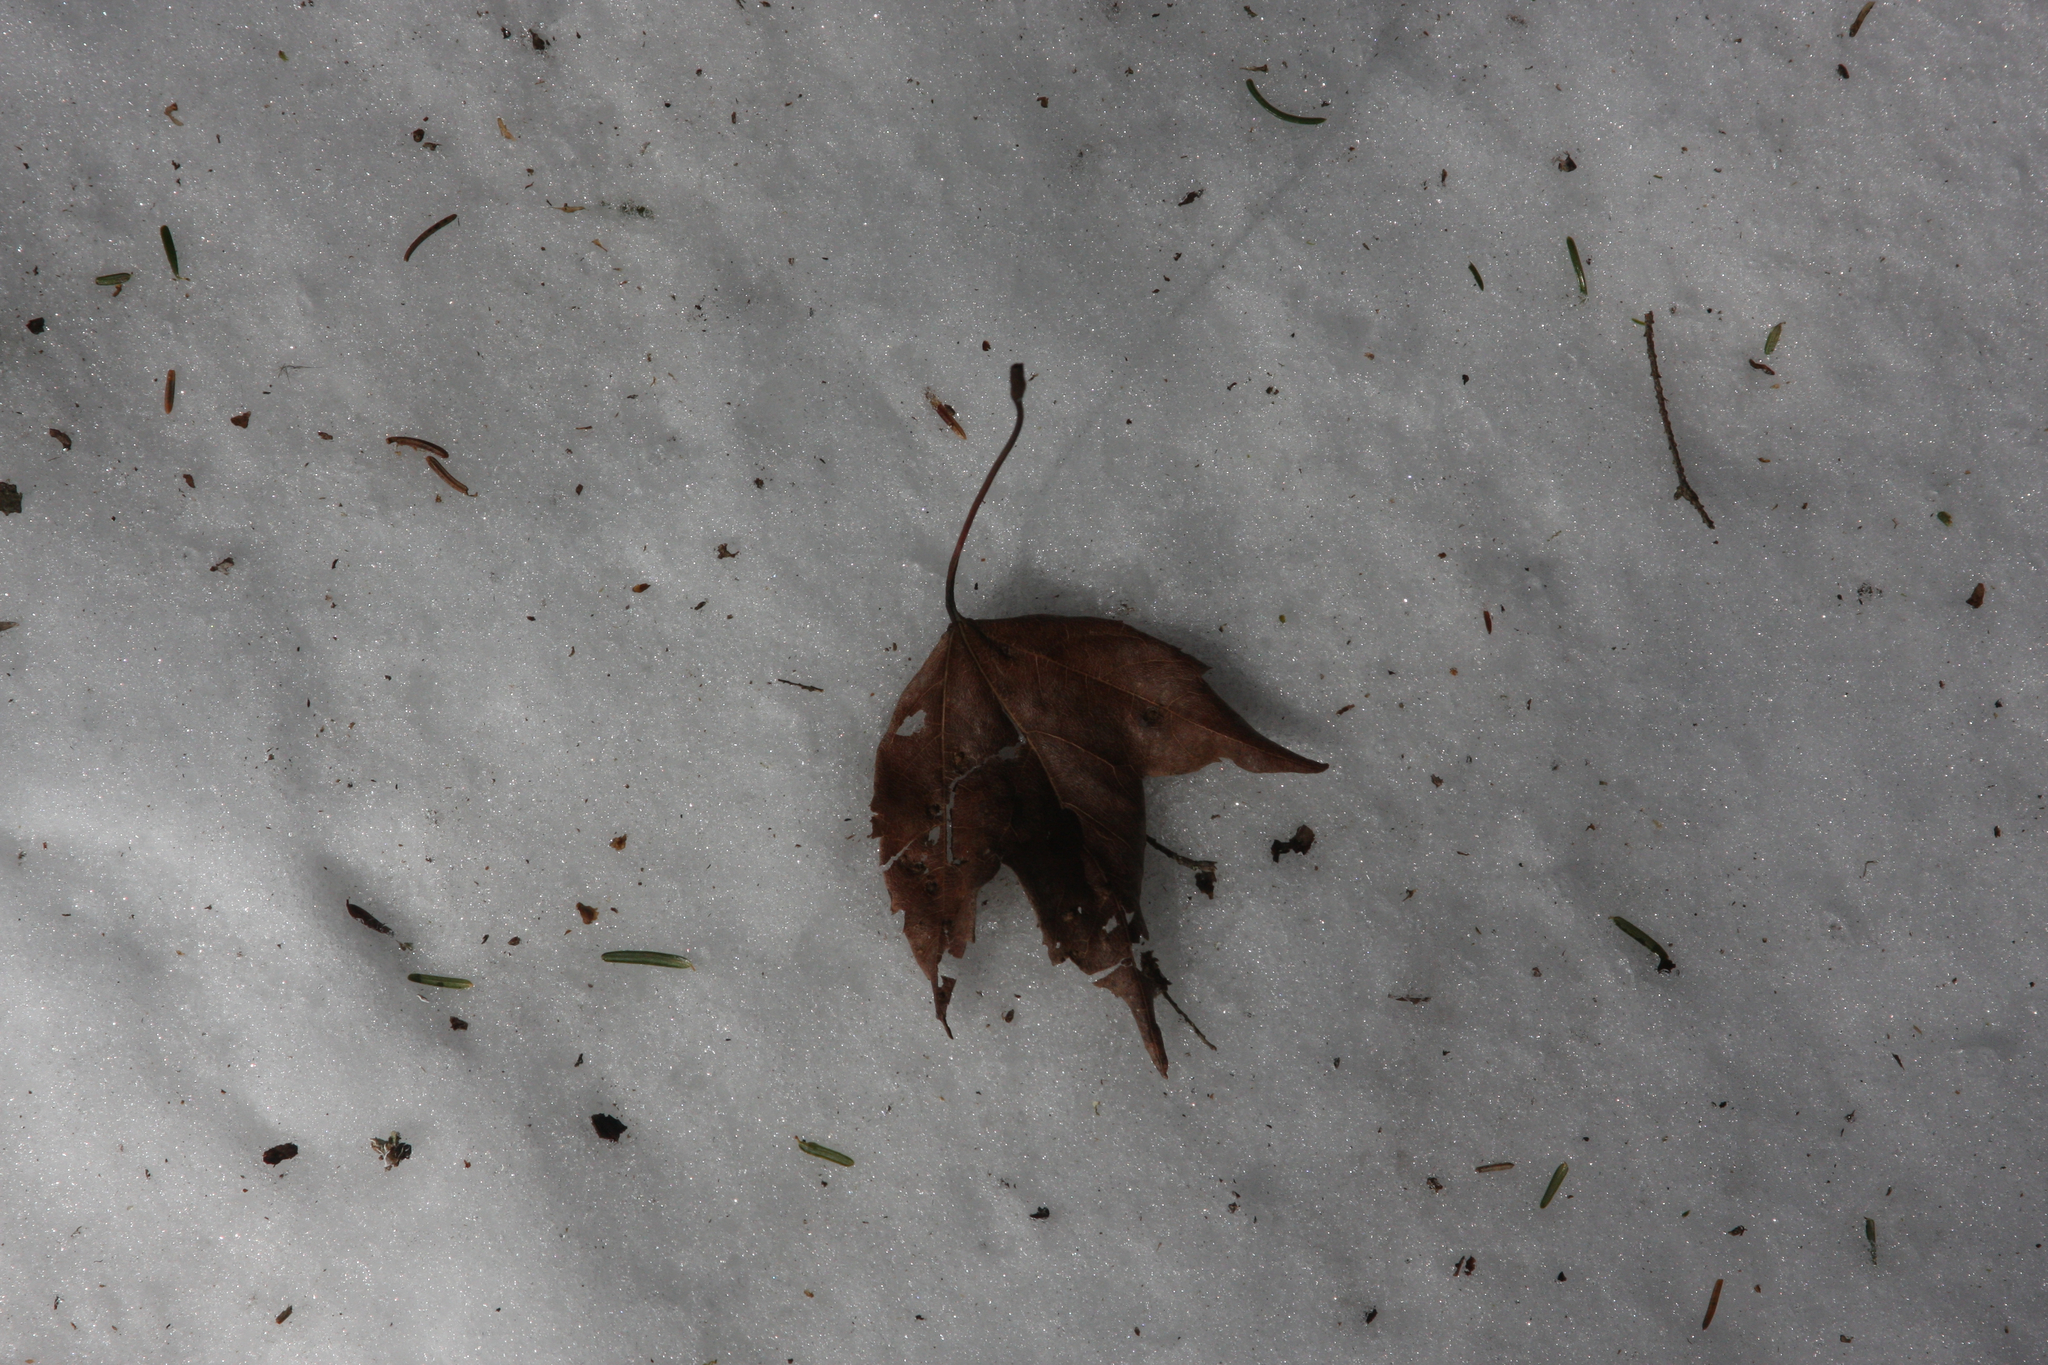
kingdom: Plantae
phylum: Tracheophyta
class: Magnoliopsida
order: Sapindales
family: Sapindaceae
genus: Acer
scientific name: Acer rubrum
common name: Red maple
